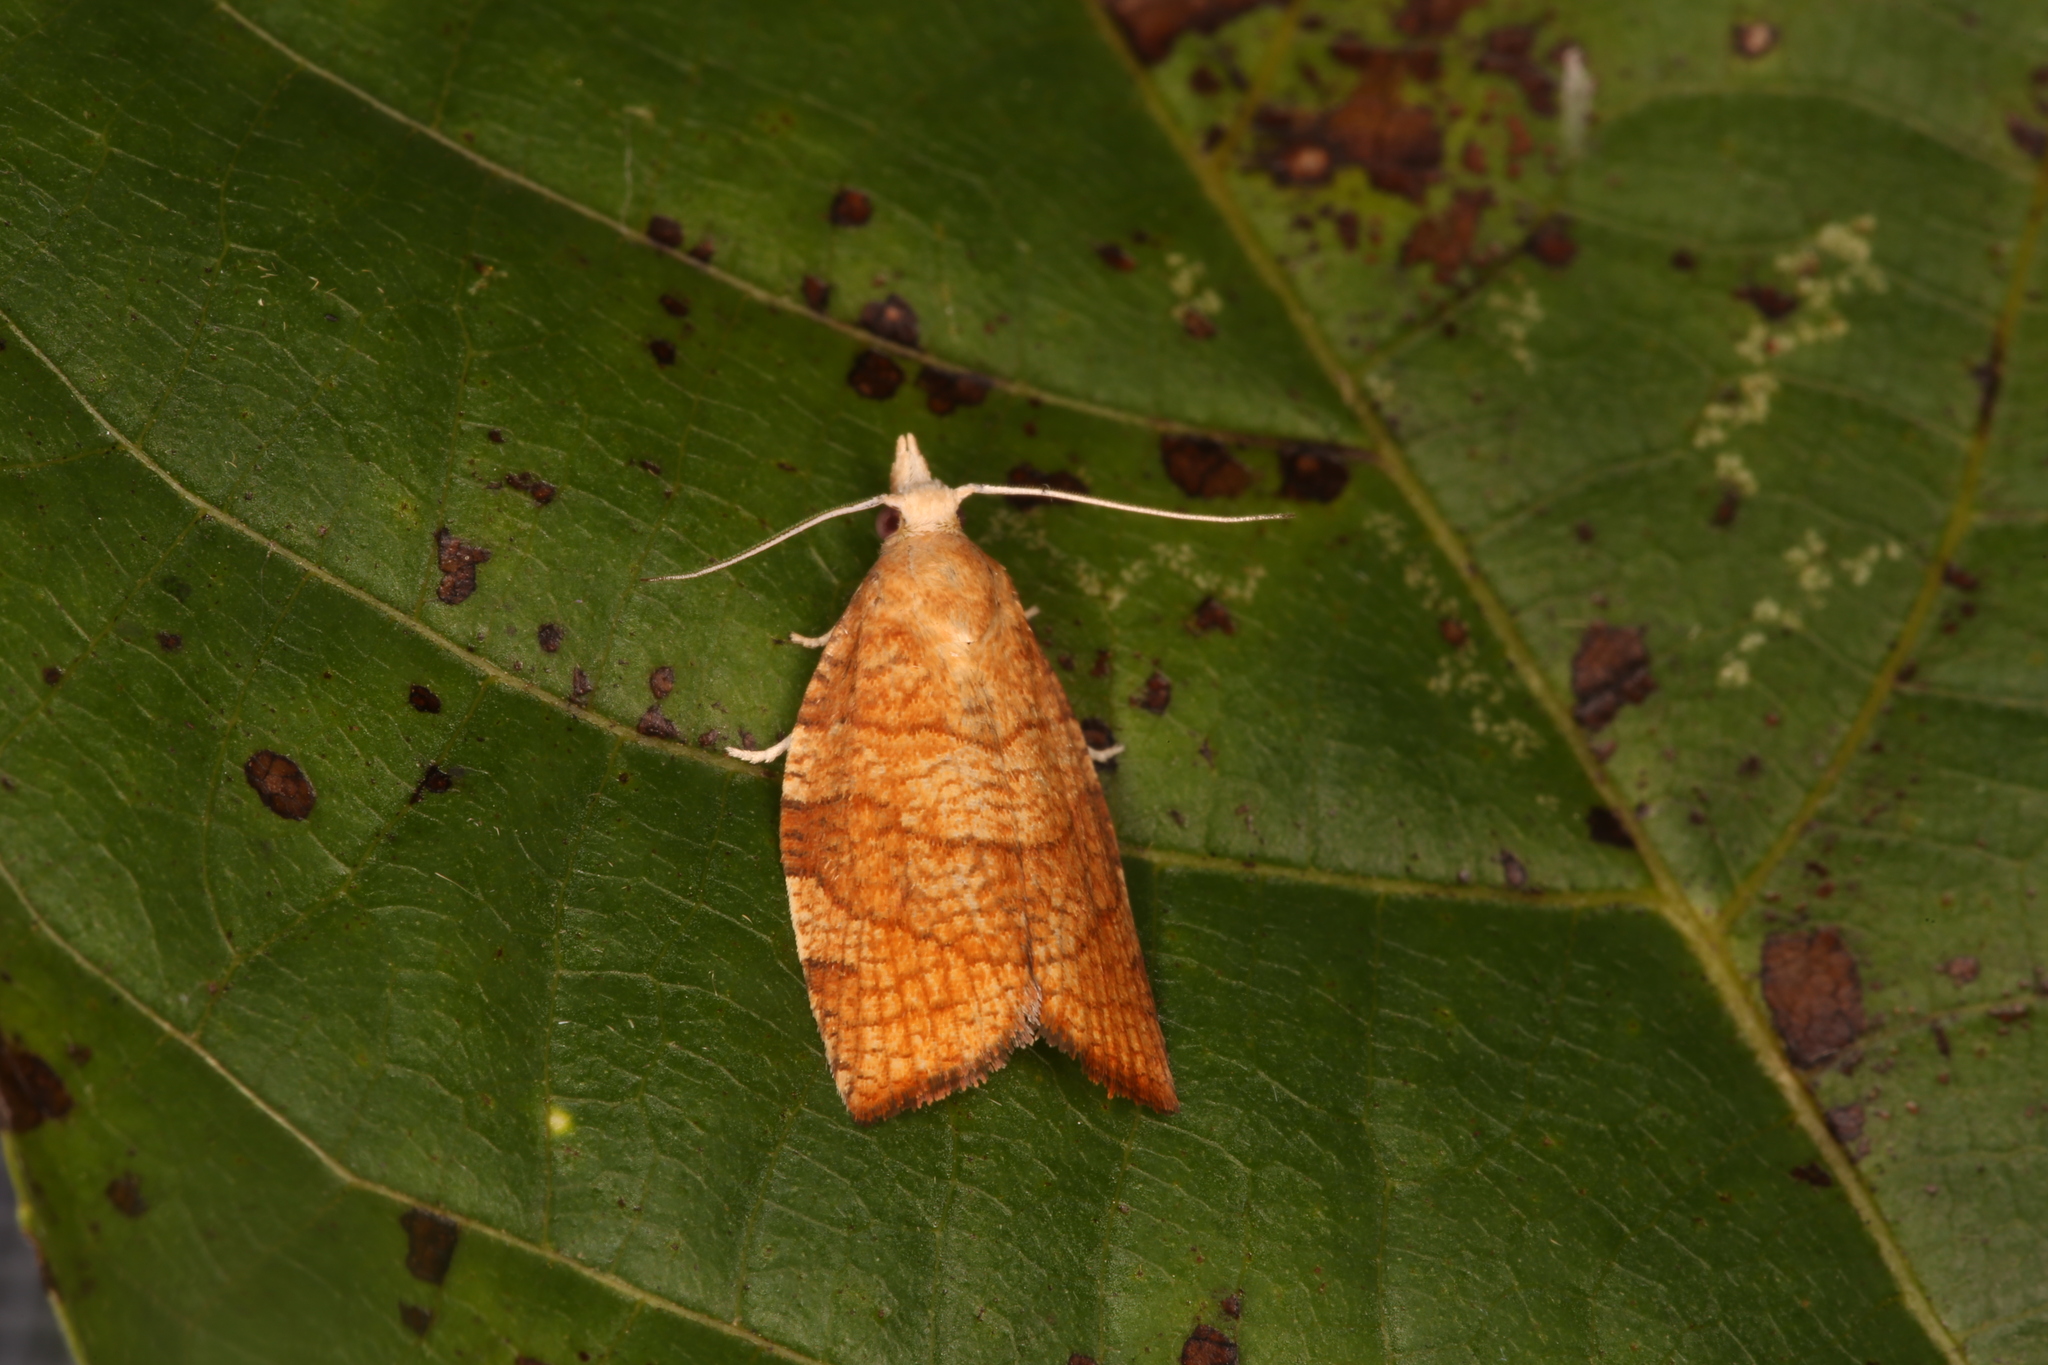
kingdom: Animalia
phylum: Arthropoda
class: Insecta
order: Lepidoptera
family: Tortricidae
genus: Pandemis
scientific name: Pandemis corylana
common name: Chequered fruit-tree tortrix
